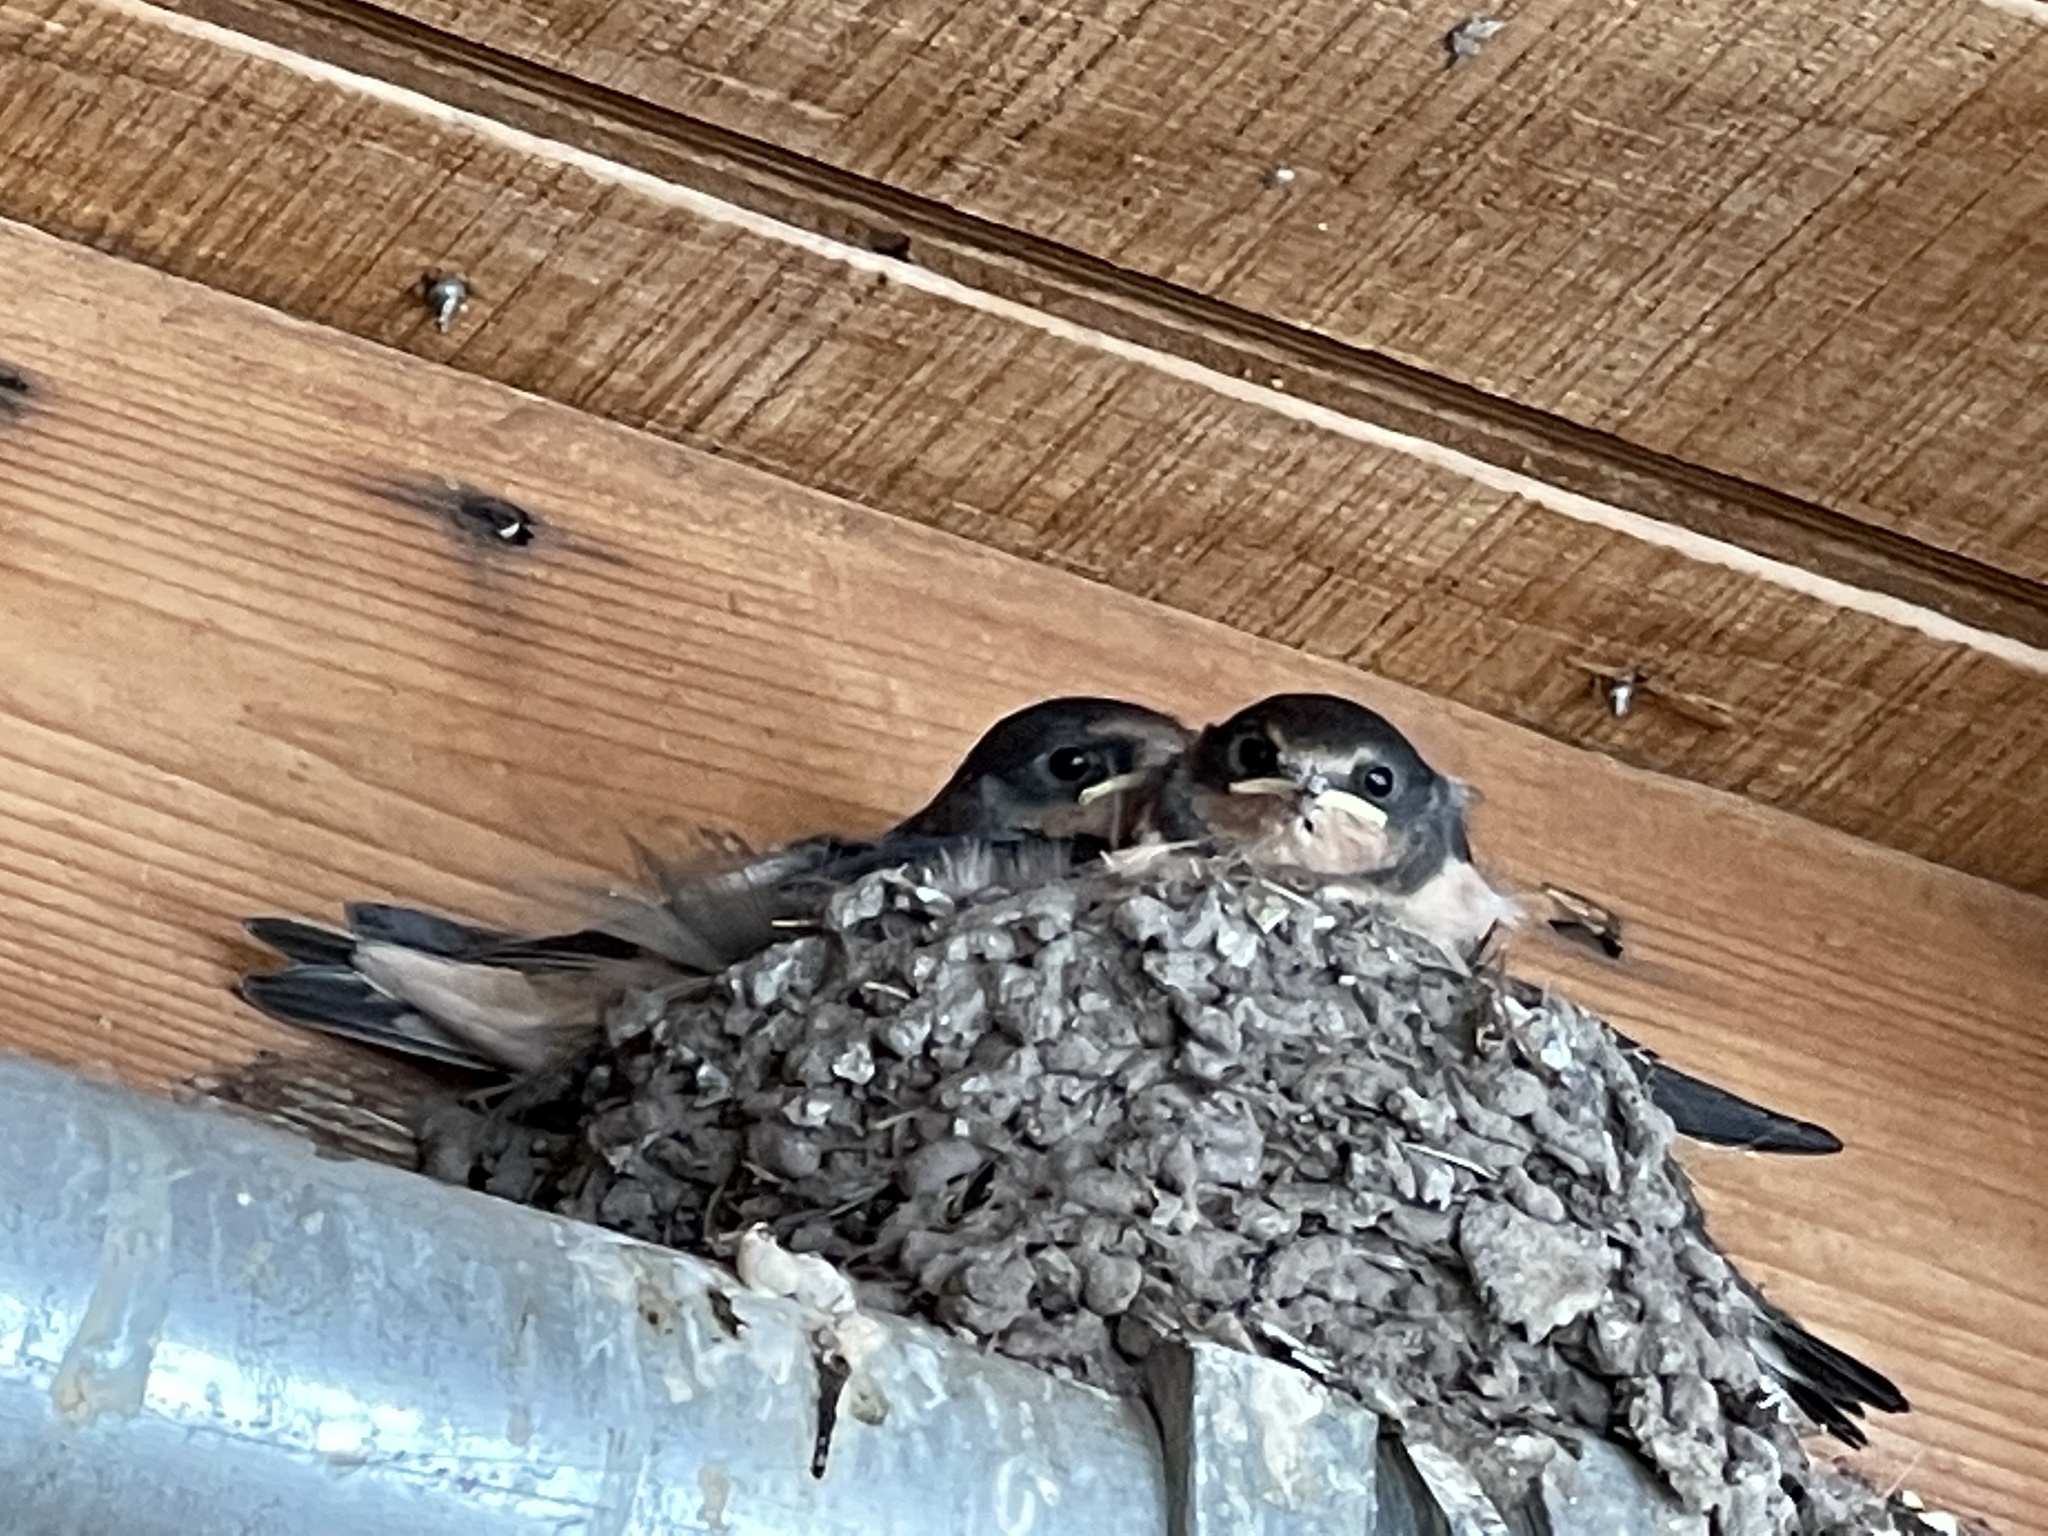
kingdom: Animalia
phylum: Chordata
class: Aves
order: Passeriformes
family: Hirundinidae
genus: Hirundo
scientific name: Hirundo rustica
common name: Barn swallow
